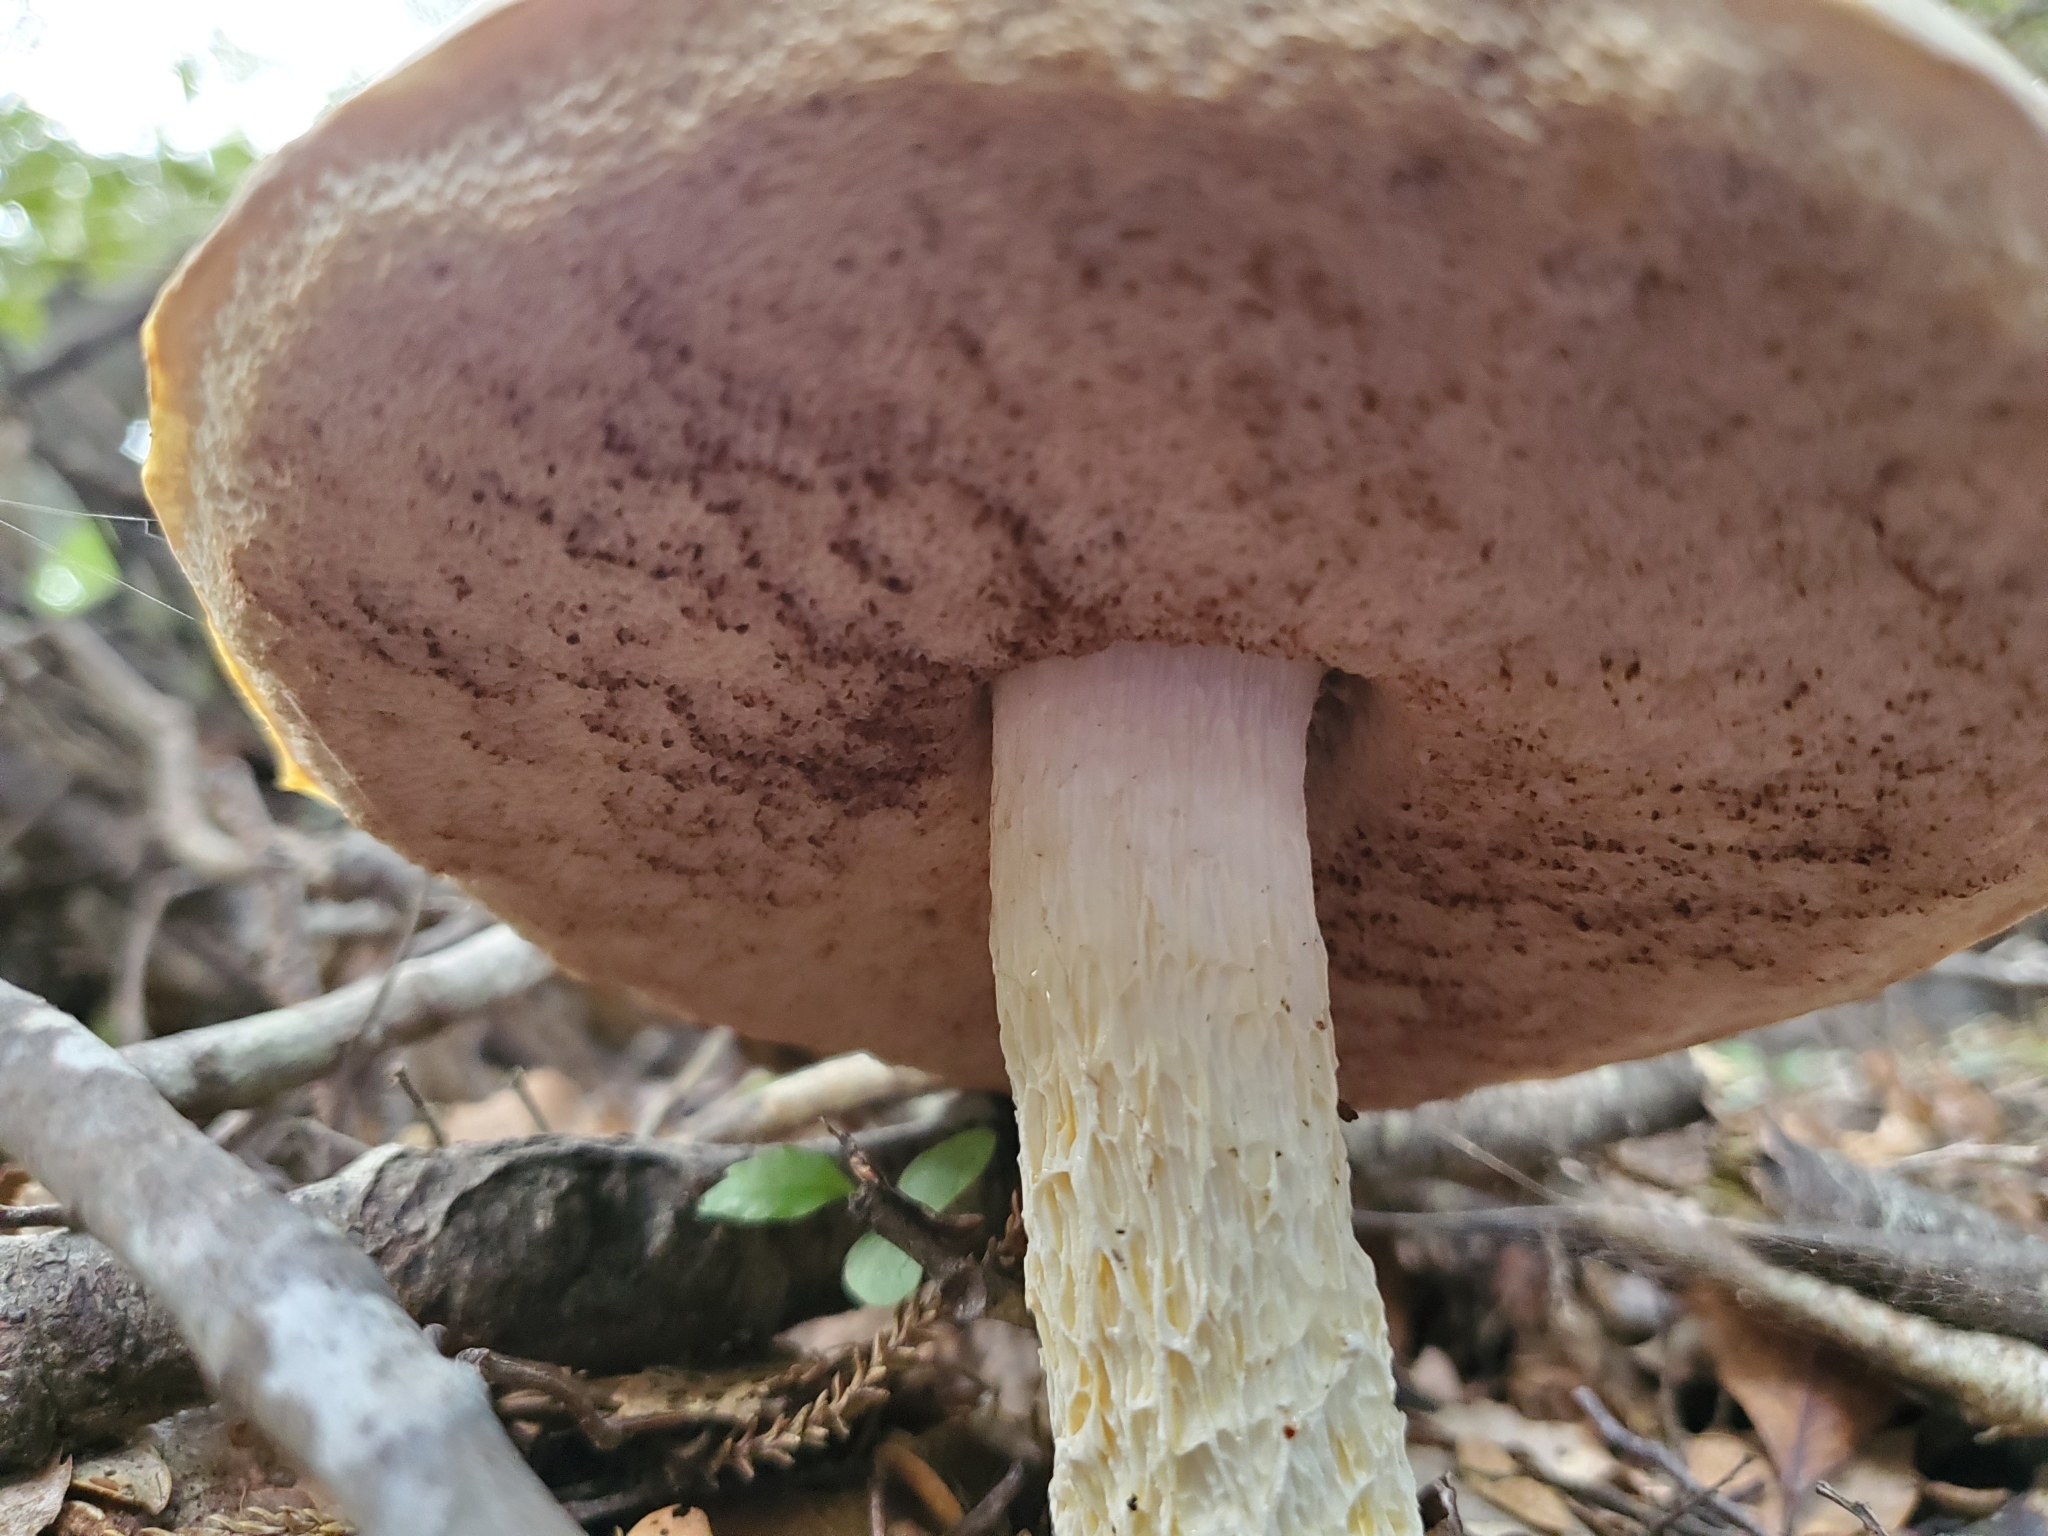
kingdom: Fungi
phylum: Basidiomycota
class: Agaricomycetes
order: Boletales
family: Boletaceae
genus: Fistulinella
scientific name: Fistulinella nivea
